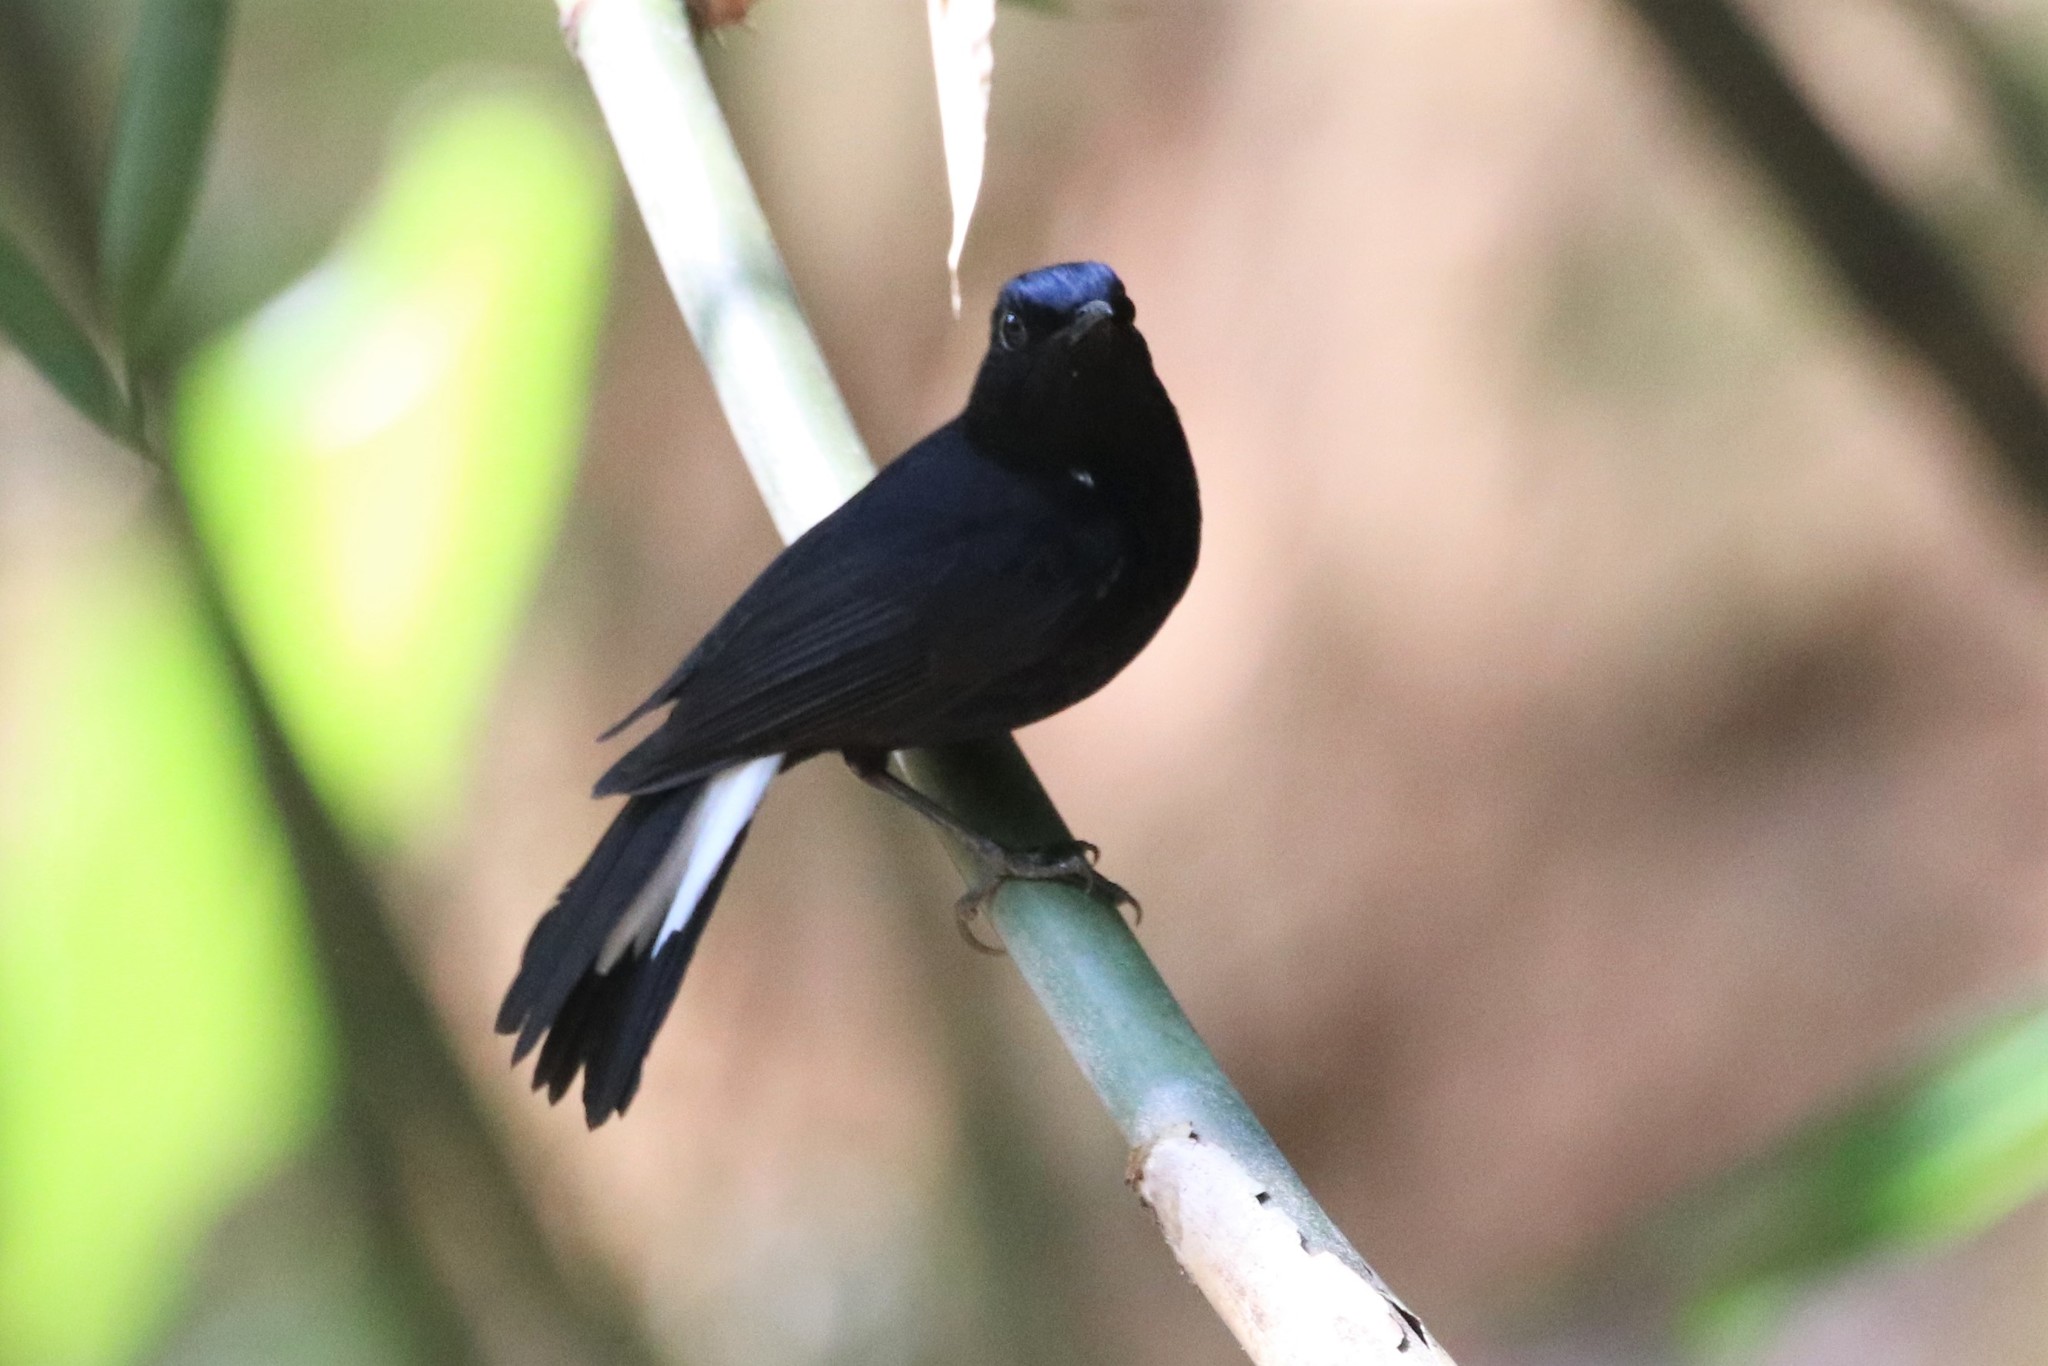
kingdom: Animalia
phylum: Chordata
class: Aves
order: Passeriformes
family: Muscicapidae
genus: Myiomela
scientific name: Myiomela leucura
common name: White-tailed robin
